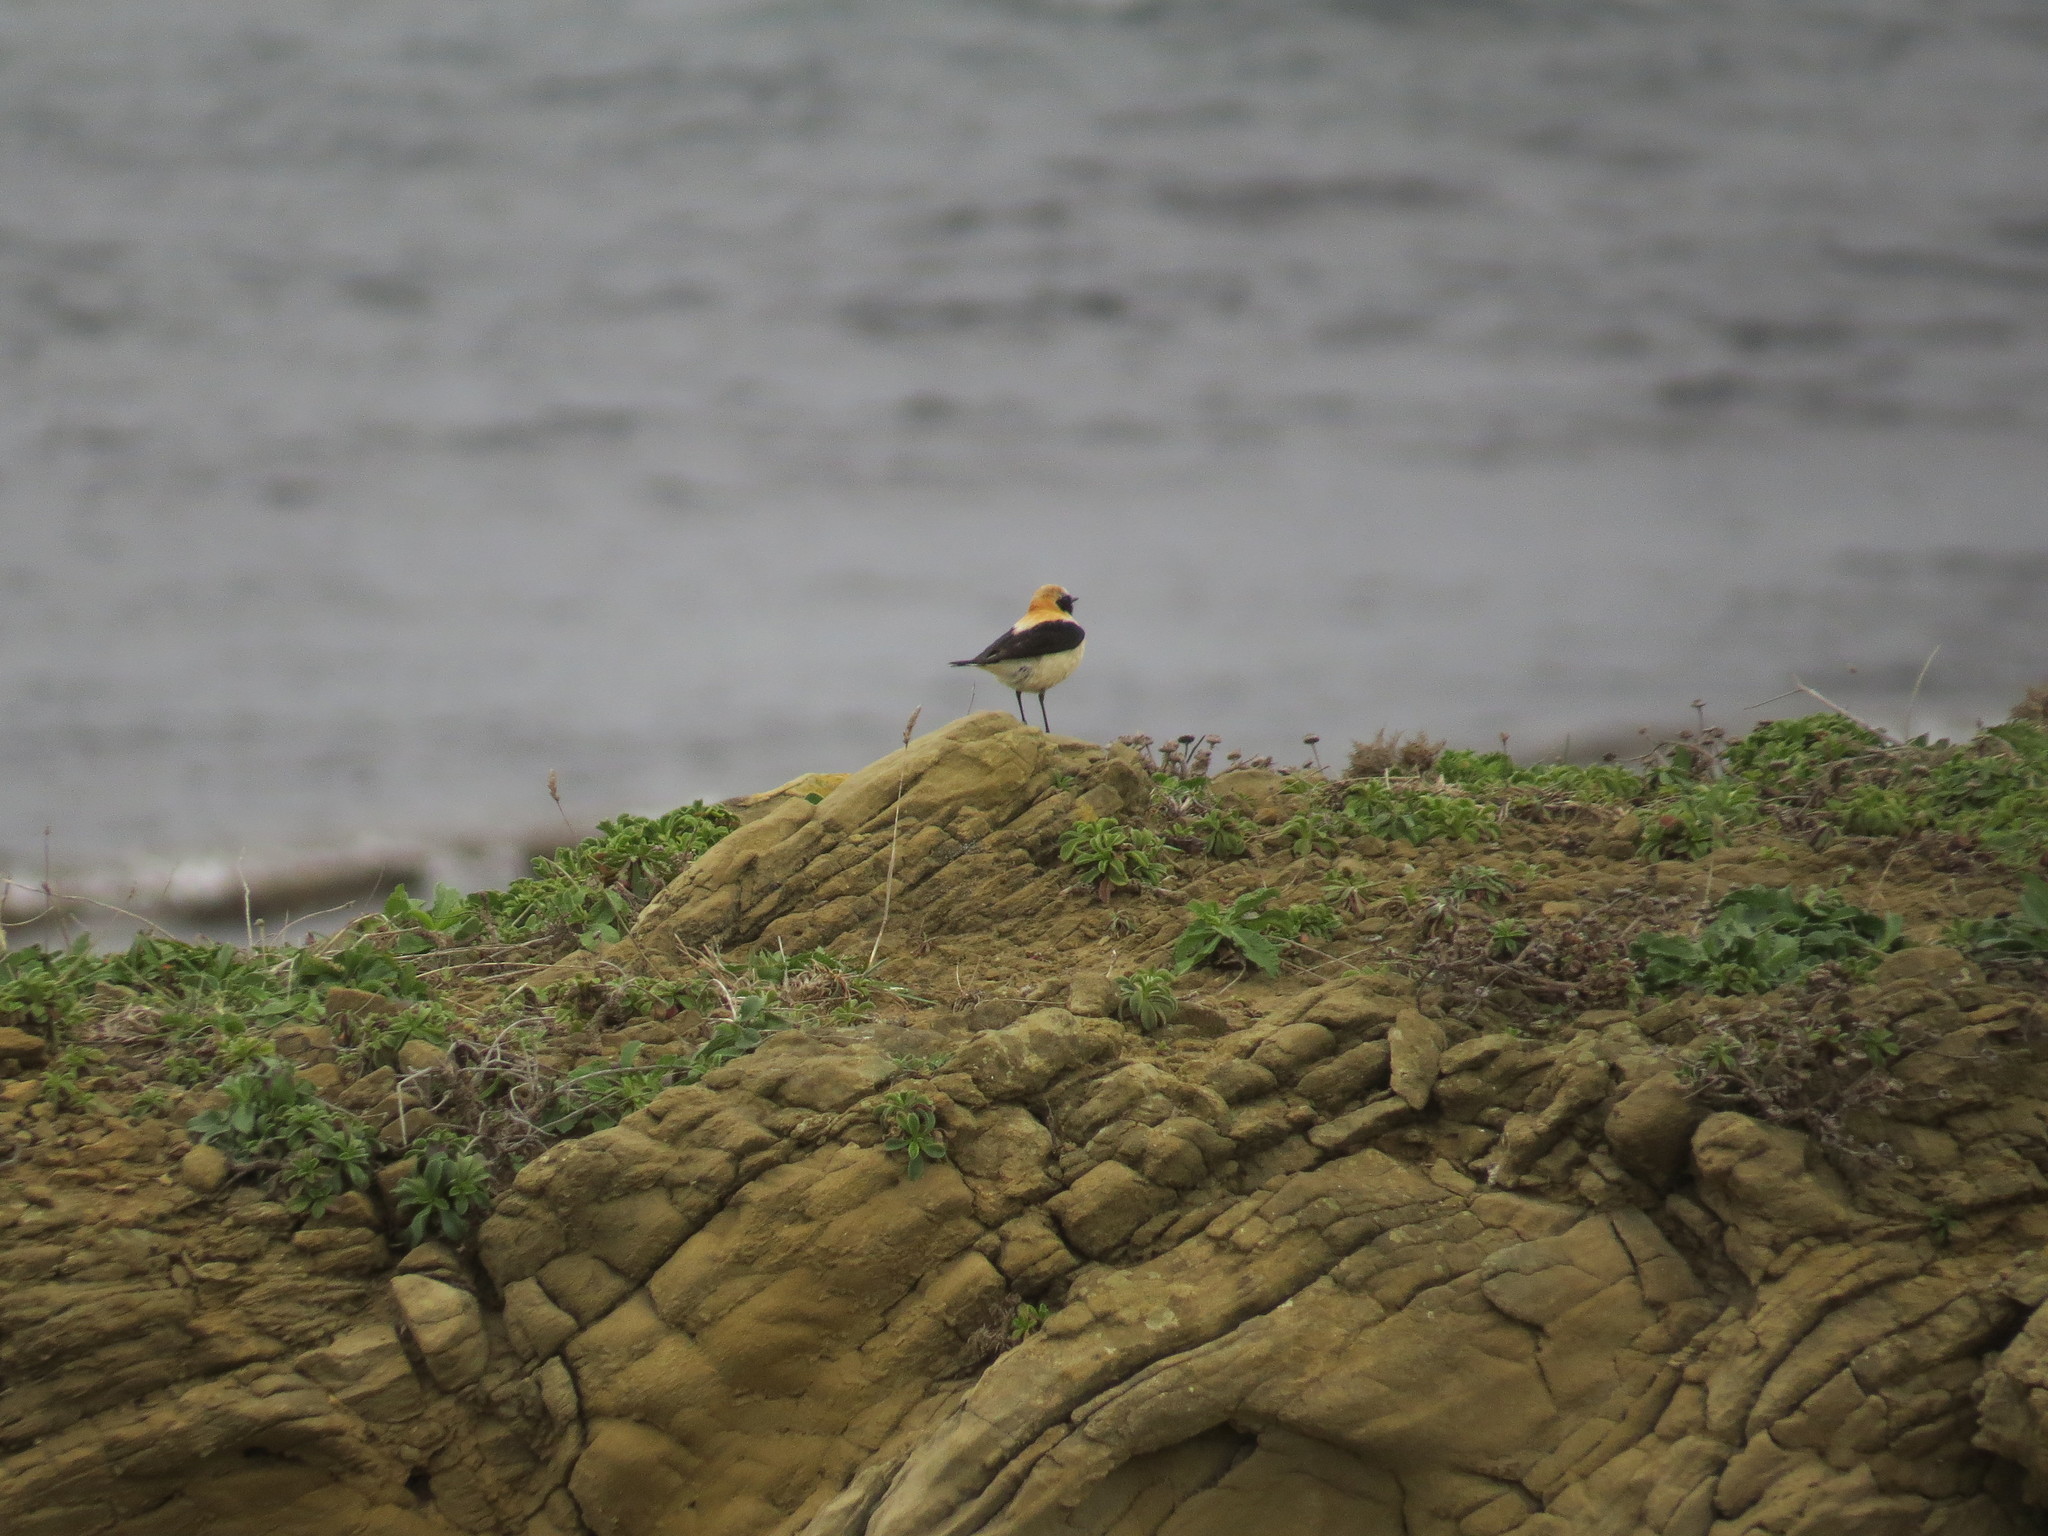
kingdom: Animalia
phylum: Chordata
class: Aves
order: Passeriformes
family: Muscicapidae
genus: Oenanthe
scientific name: Oenanthe hispanica
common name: Black-eared wheatear
